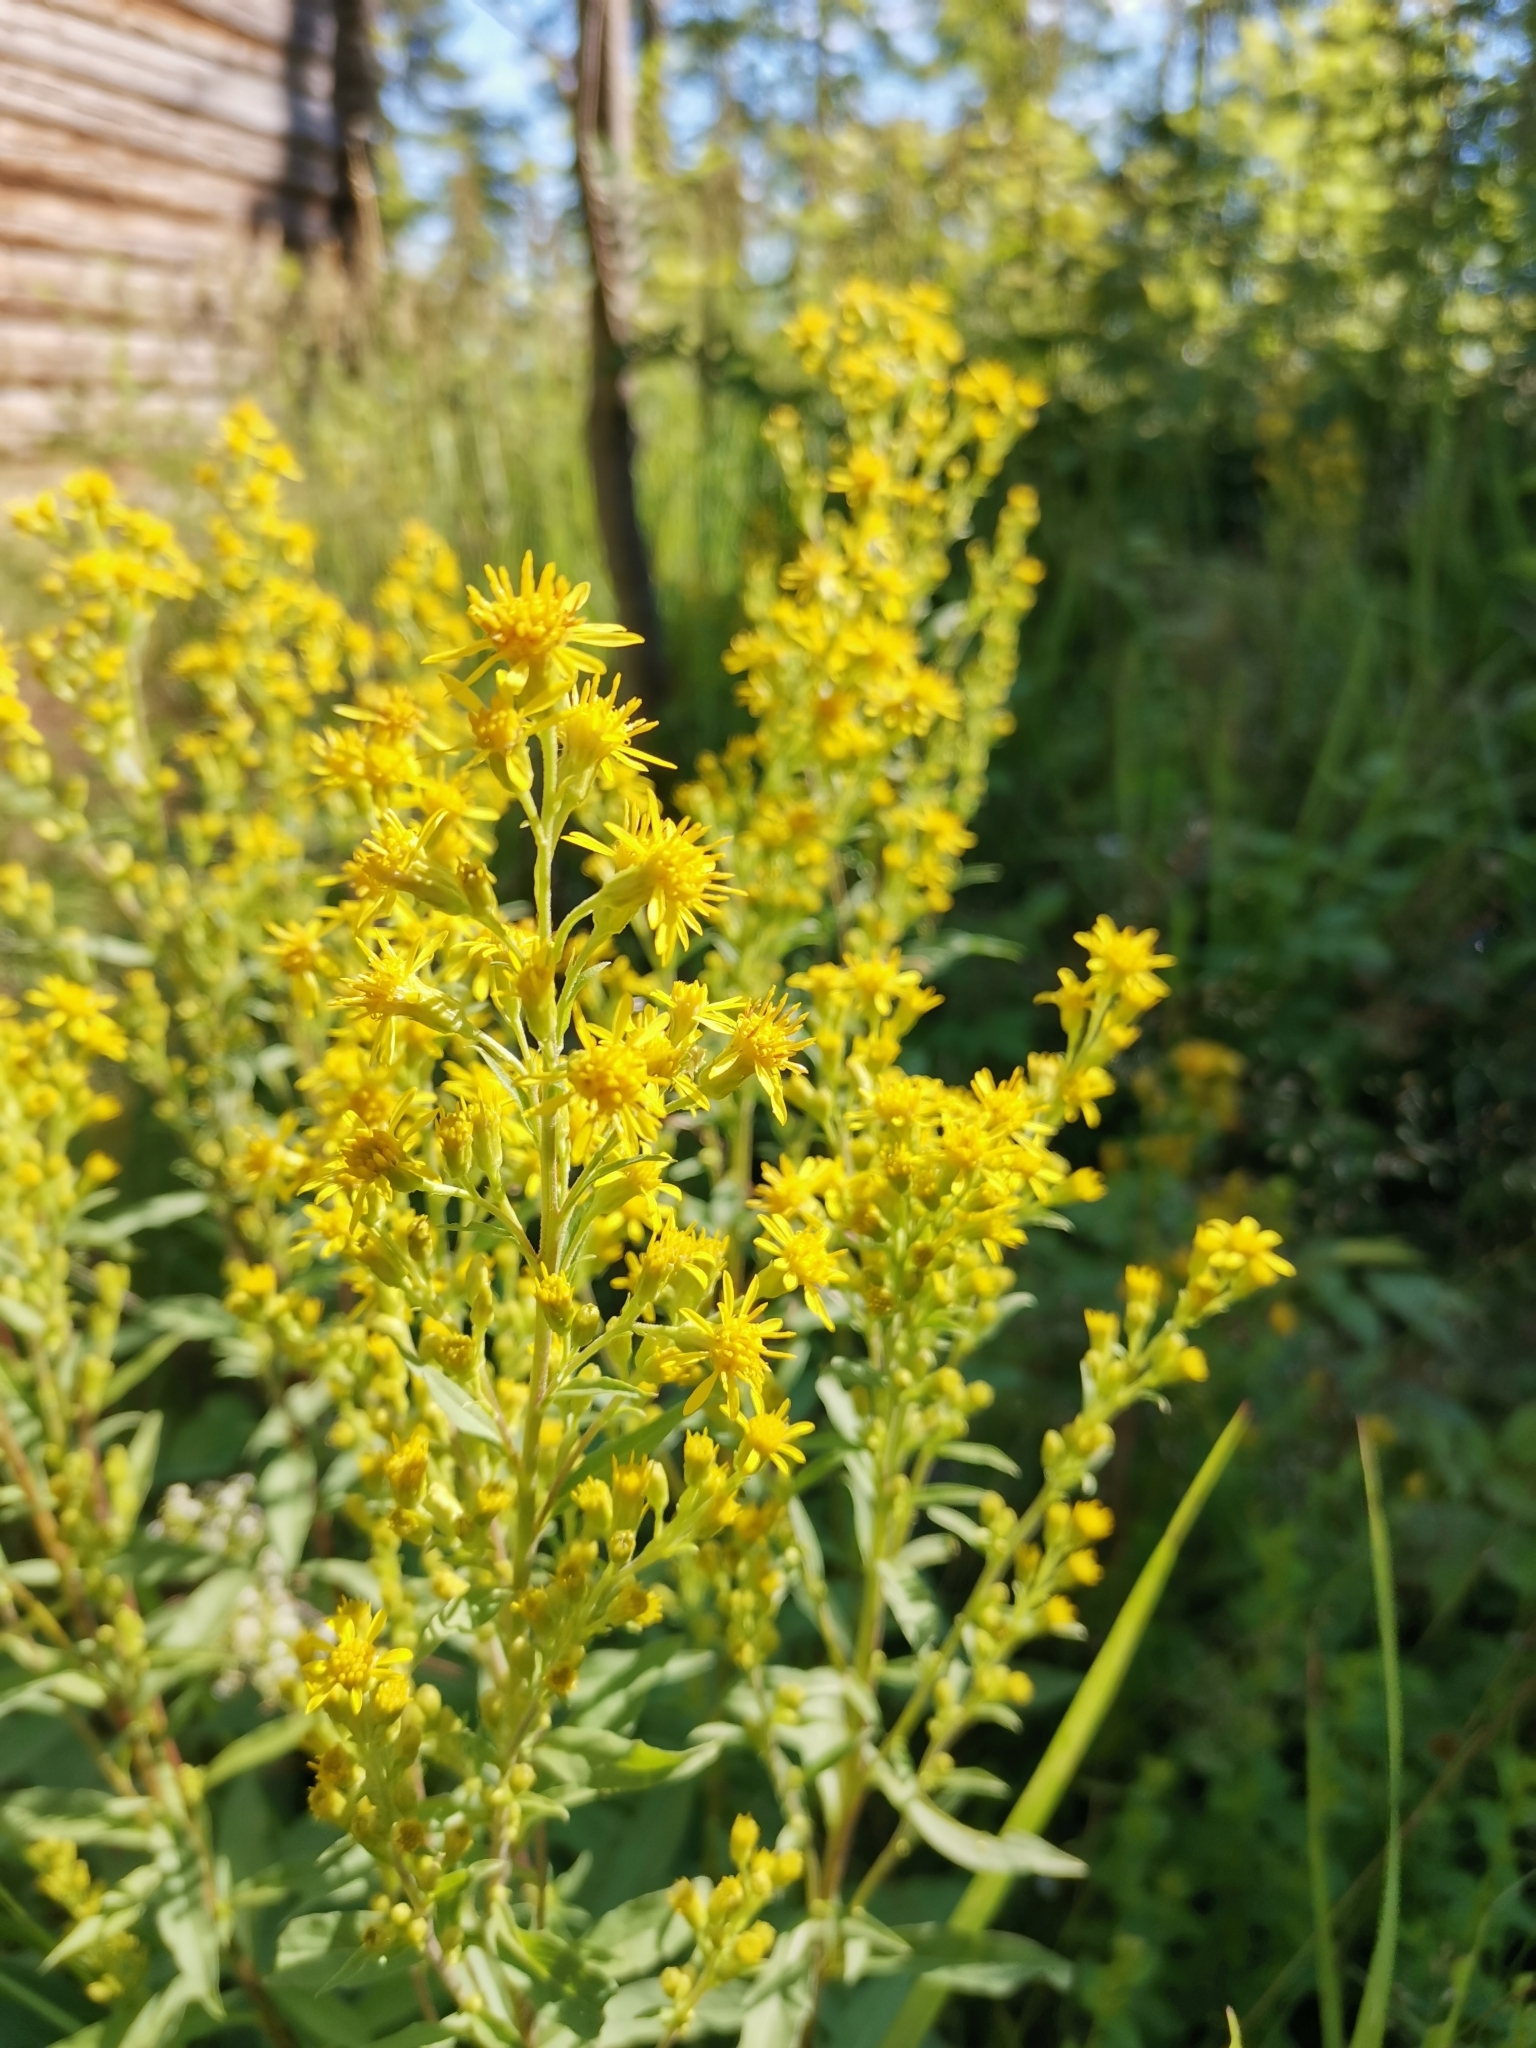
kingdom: Plantae
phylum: Tracheophyta
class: Magnoliopsida
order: Asterales
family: Asteraceae
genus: Solidago
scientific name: Solidago virgaurea
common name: Goldenrod
